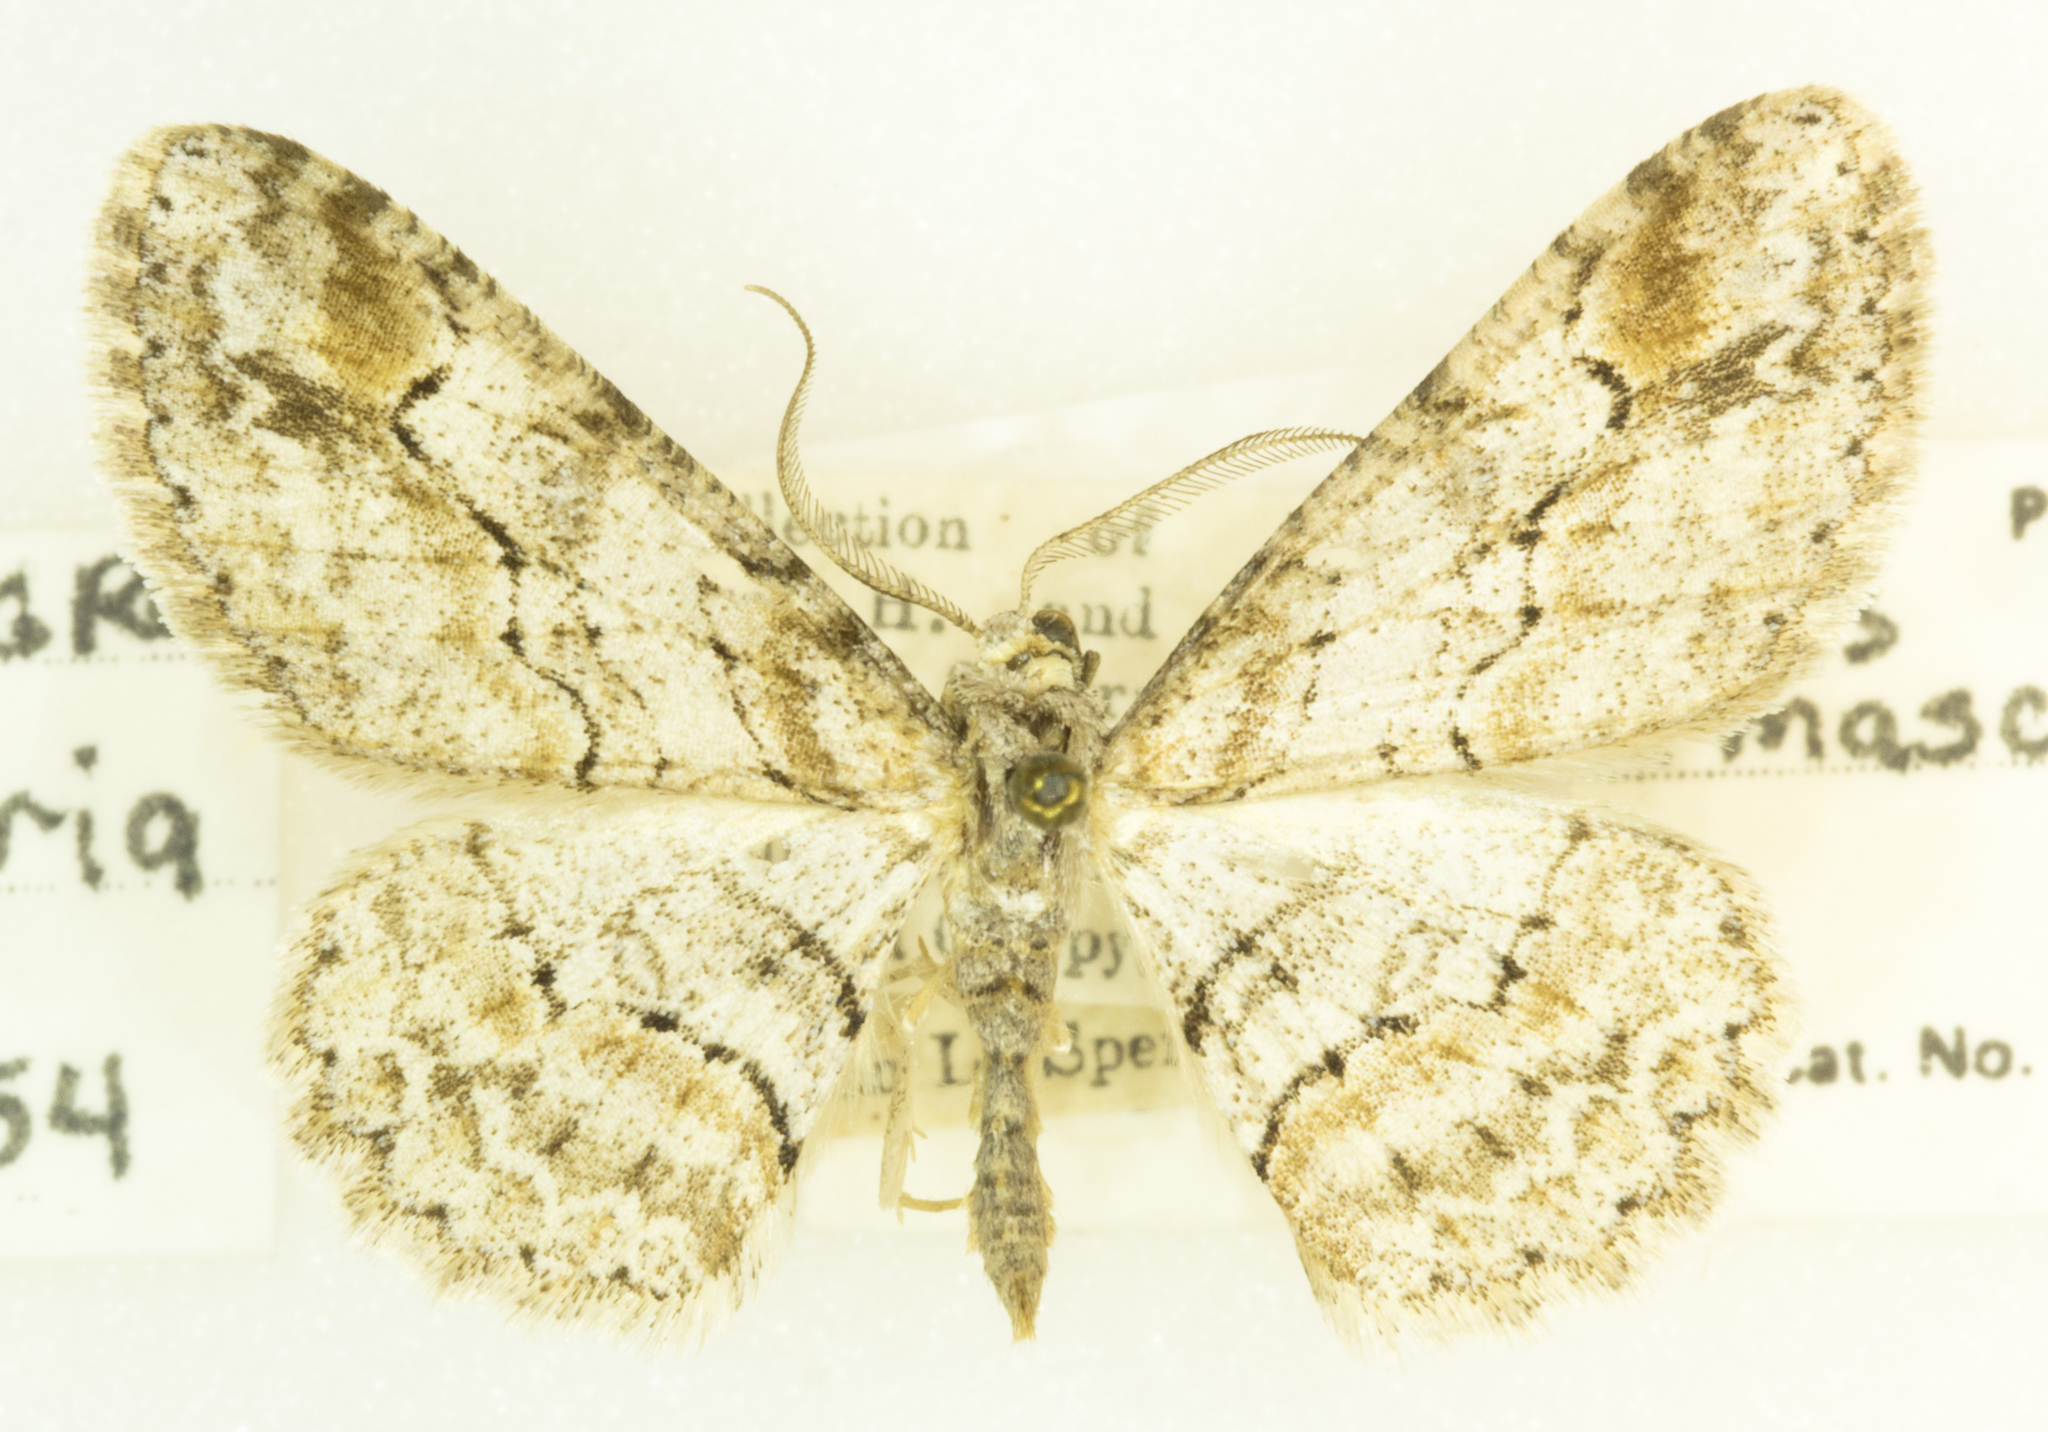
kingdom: Animalia
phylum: Arthropoda
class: Insecta
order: Lepidoptera
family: Geometridae
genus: Iridopsis
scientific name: Iridopsis emasculatum
